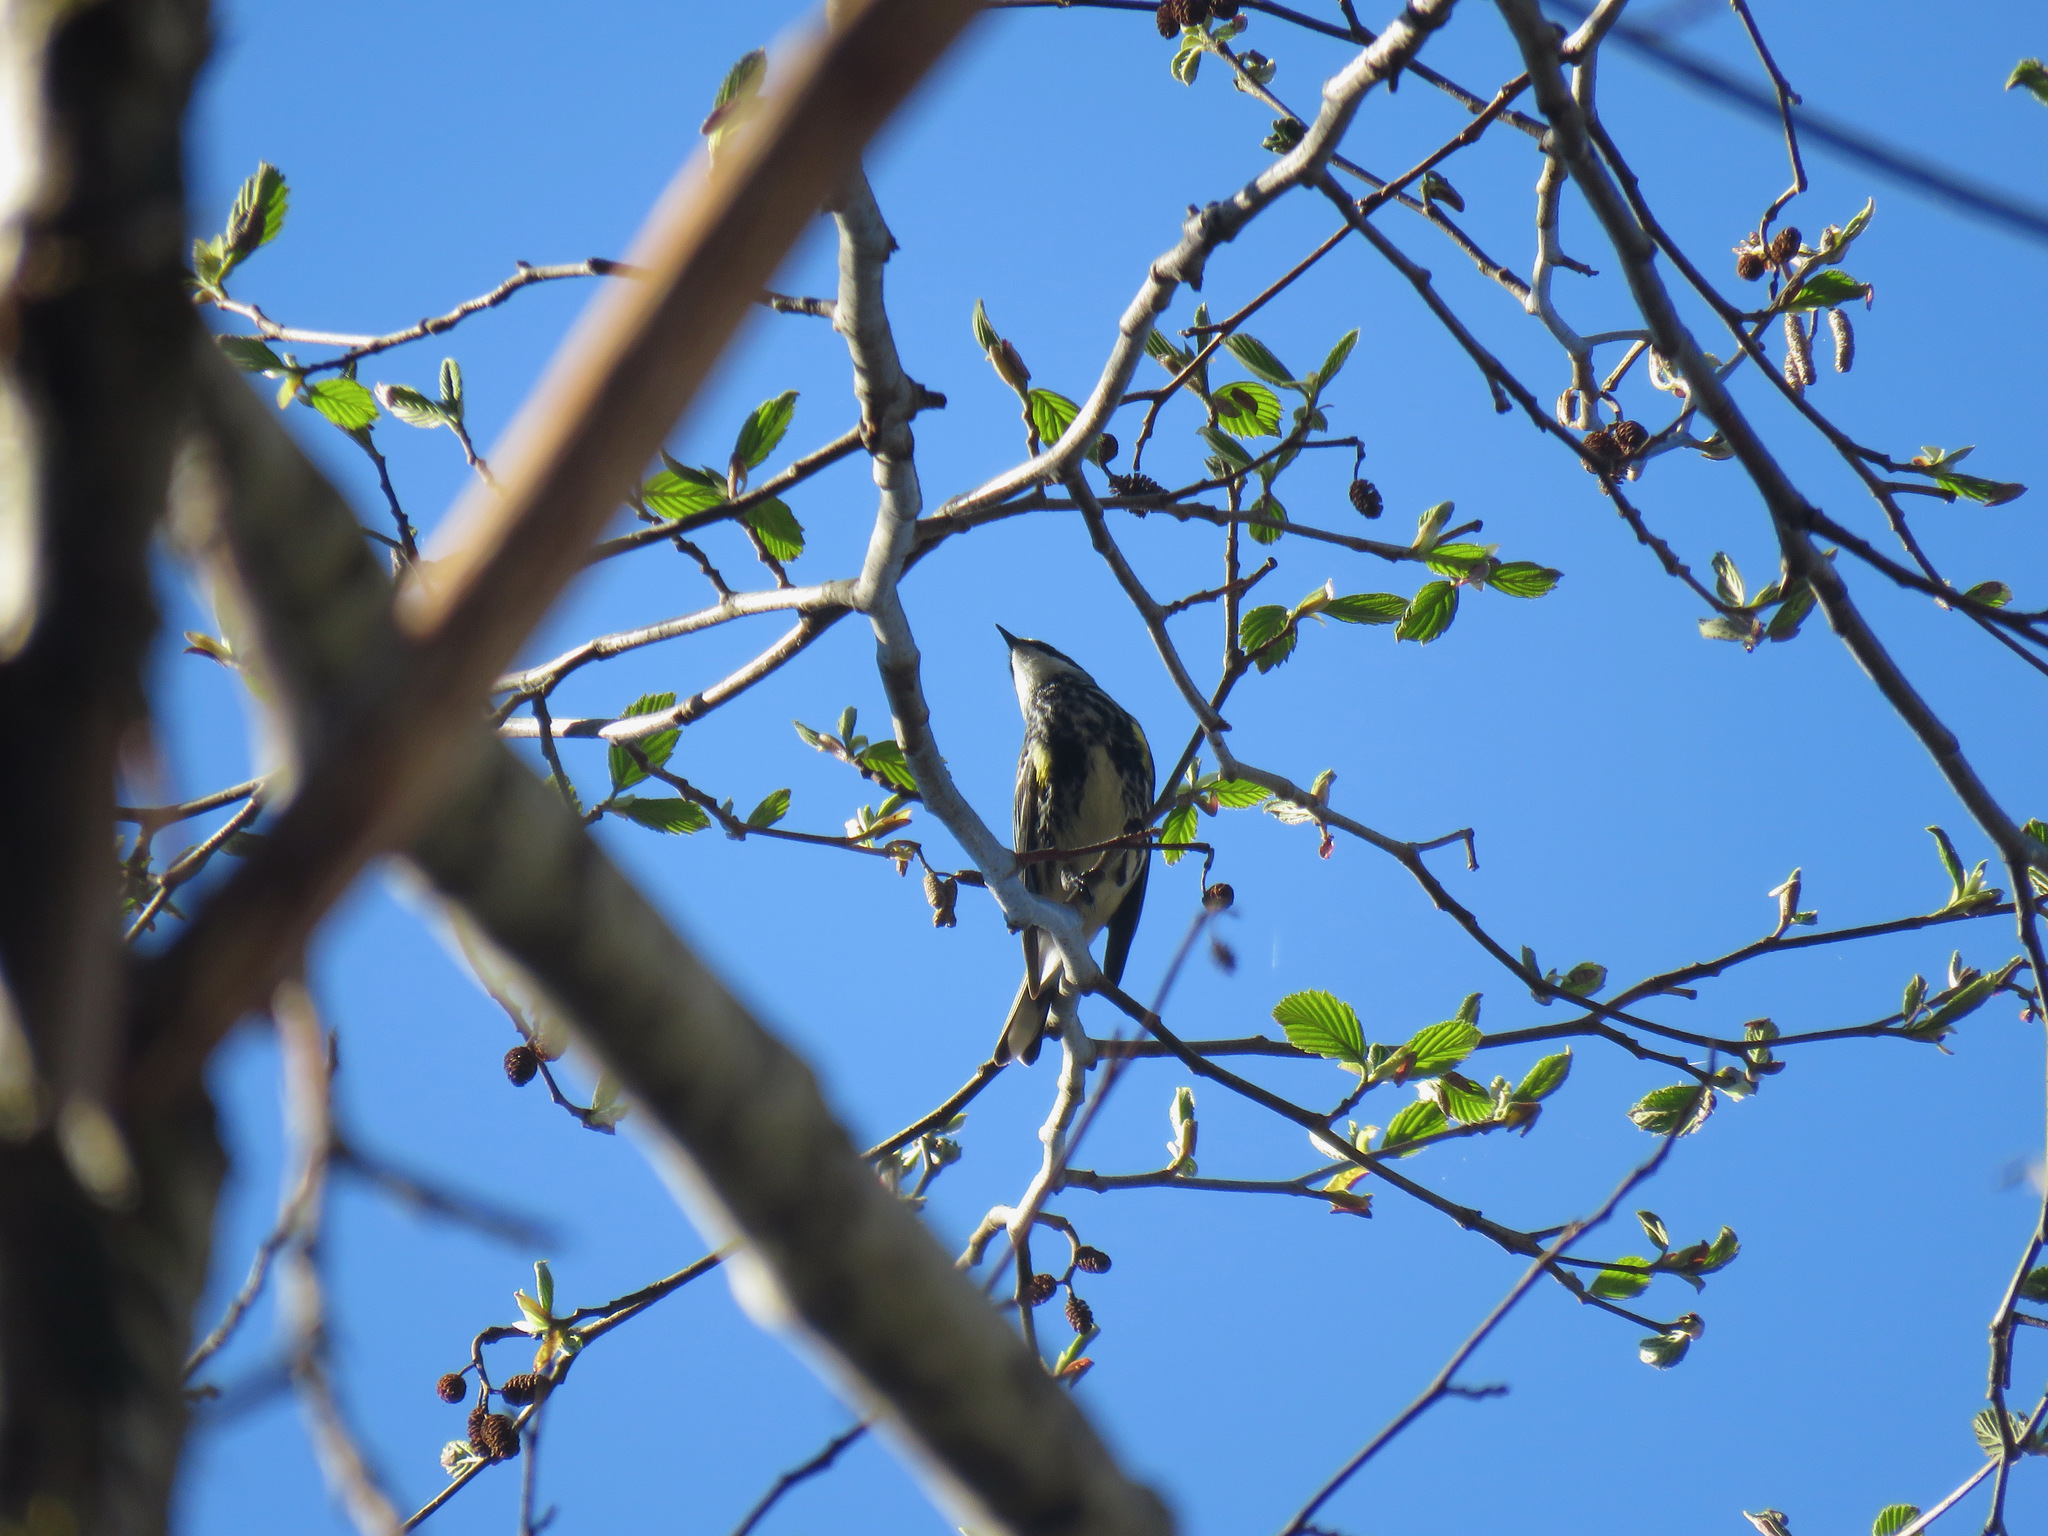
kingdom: Animalia
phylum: Chordata
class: Aves
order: Passeriformes
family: Parulidae
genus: Setophaga
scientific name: Setophaga coronata
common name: Myrtle warbler
